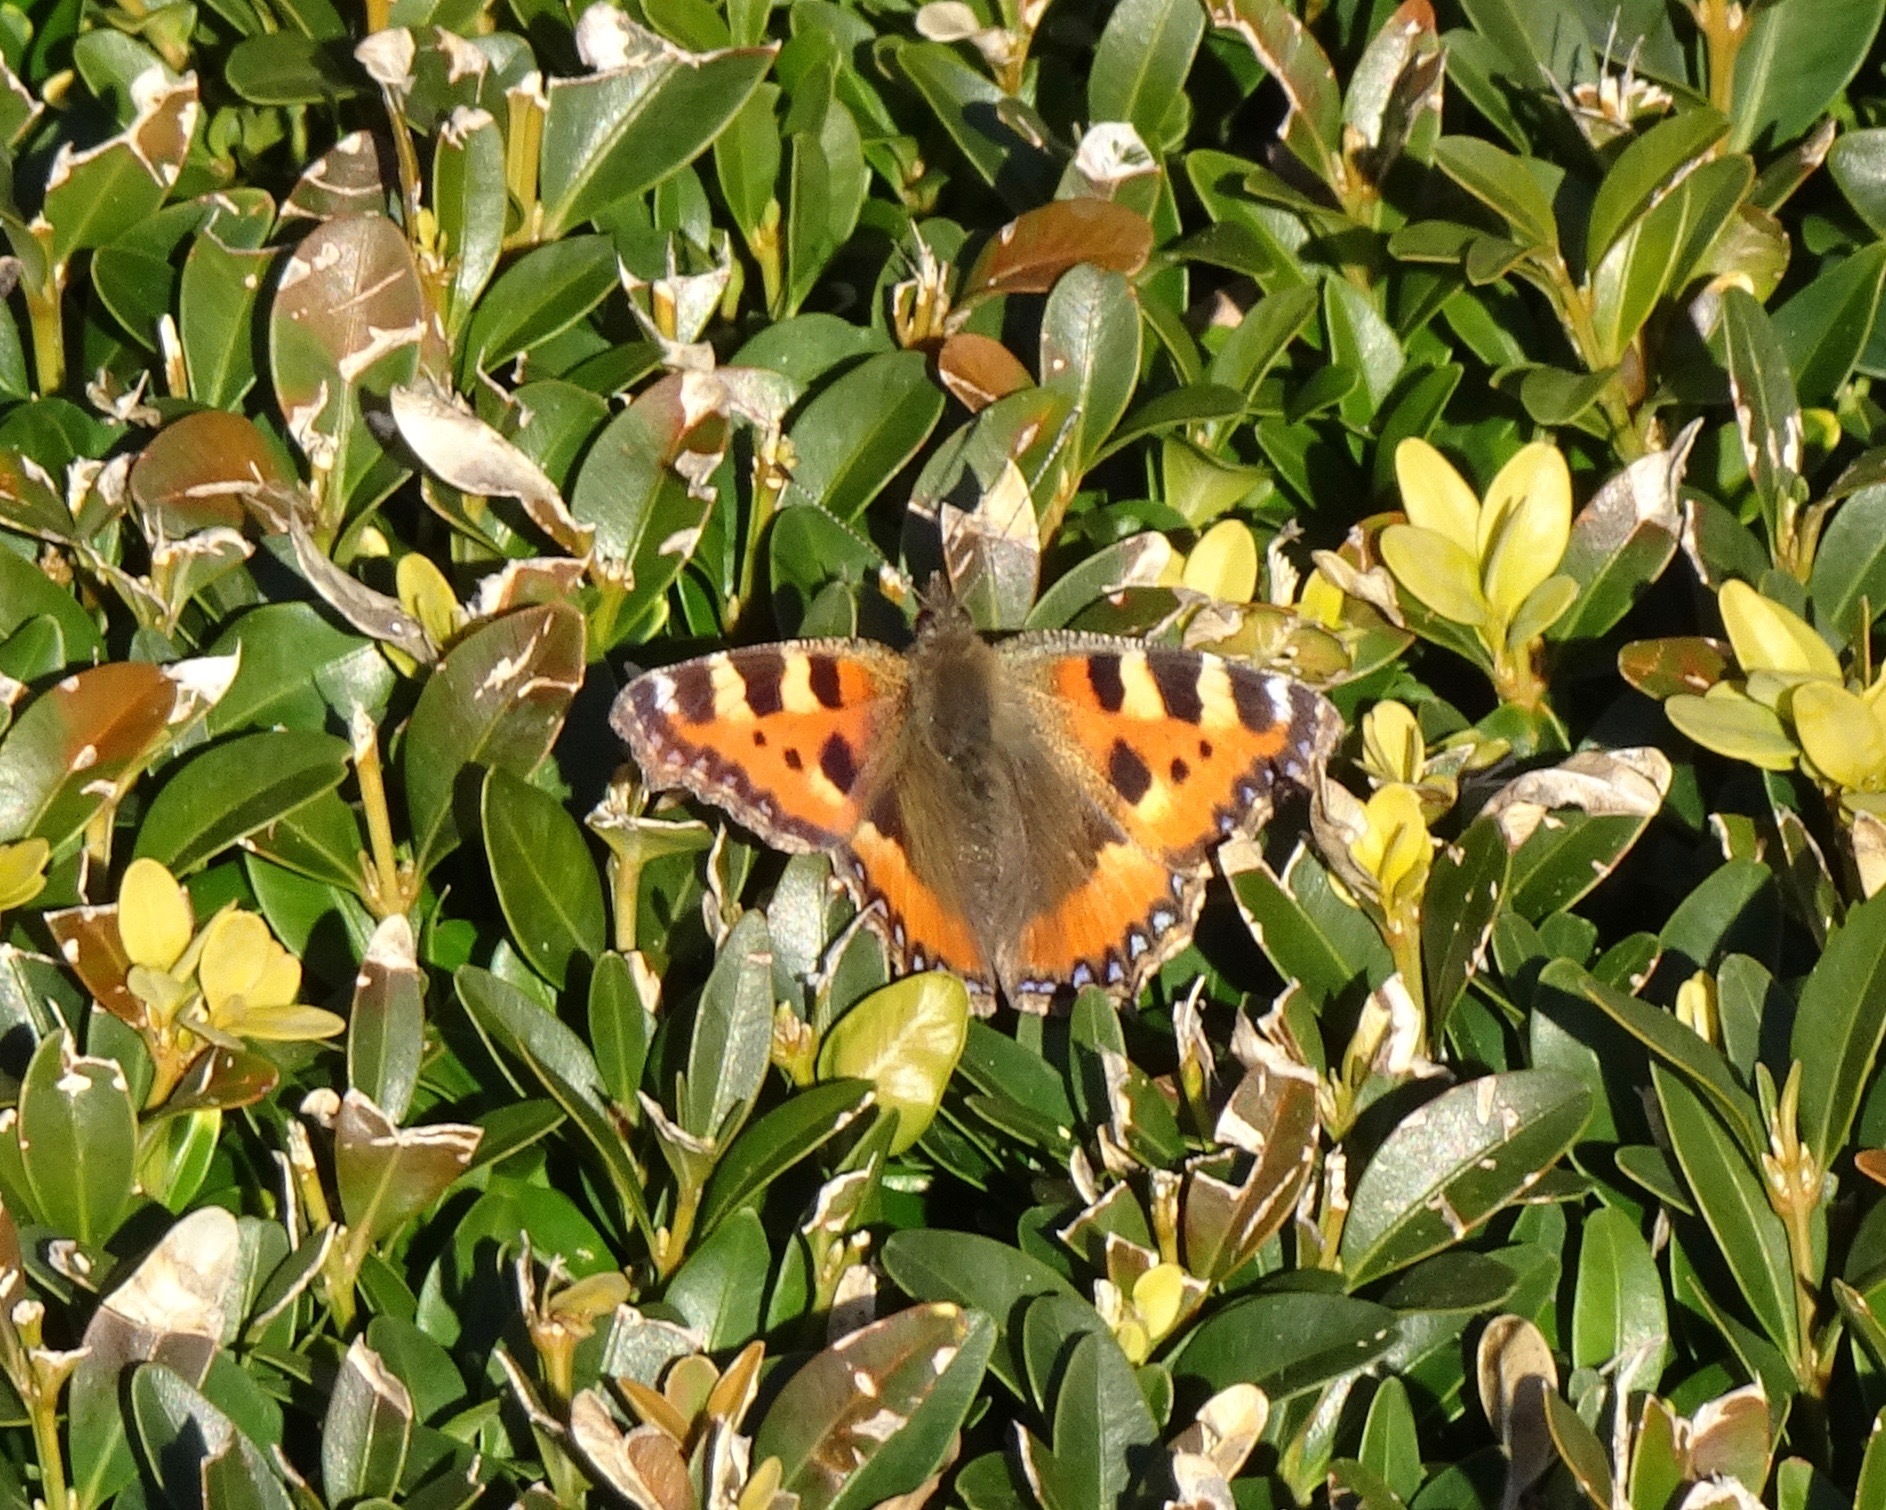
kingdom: Animalia
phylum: Arthropoda
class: Insecta
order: Lepidoptera
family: Nymphalidae
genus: Aglais
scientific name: Aglais urticae
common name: Small tortoiseshell
